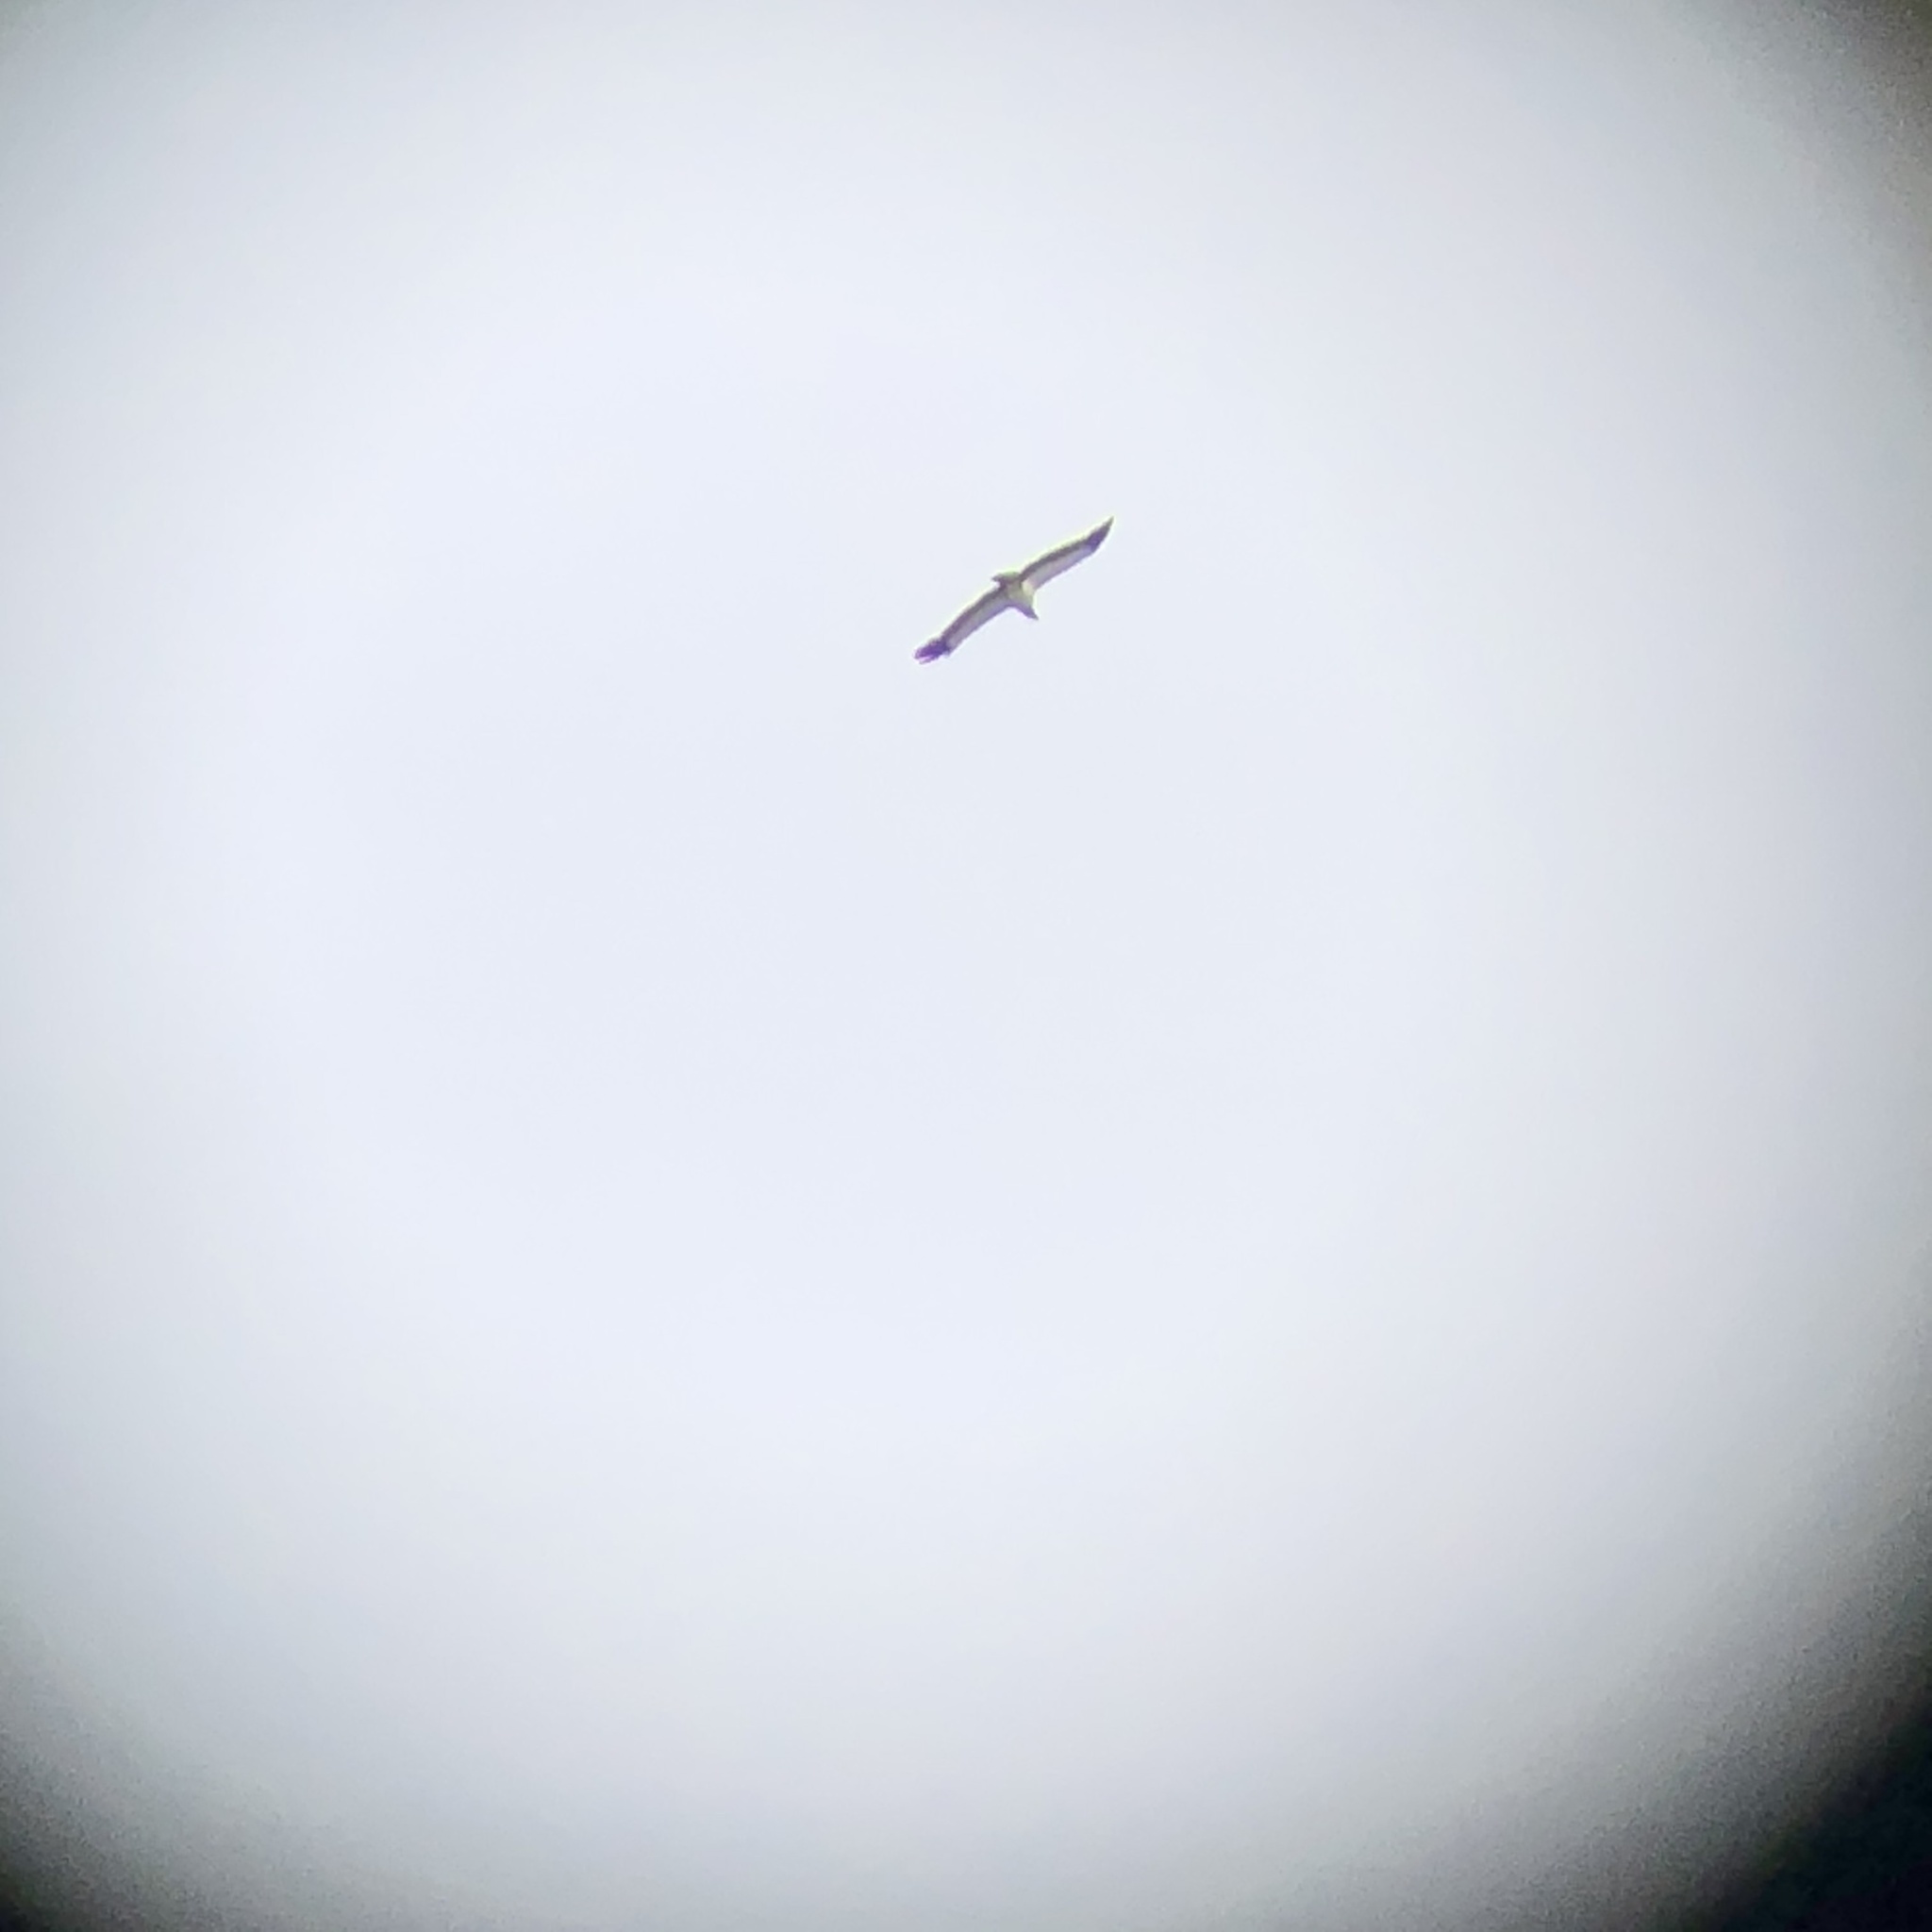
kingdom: Animalia
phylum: Chordata
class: Aves
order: Accipitriformes
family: Cathartidae
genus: Sarcoramphus
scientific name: Sarcoramphus papa
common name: King vulture
